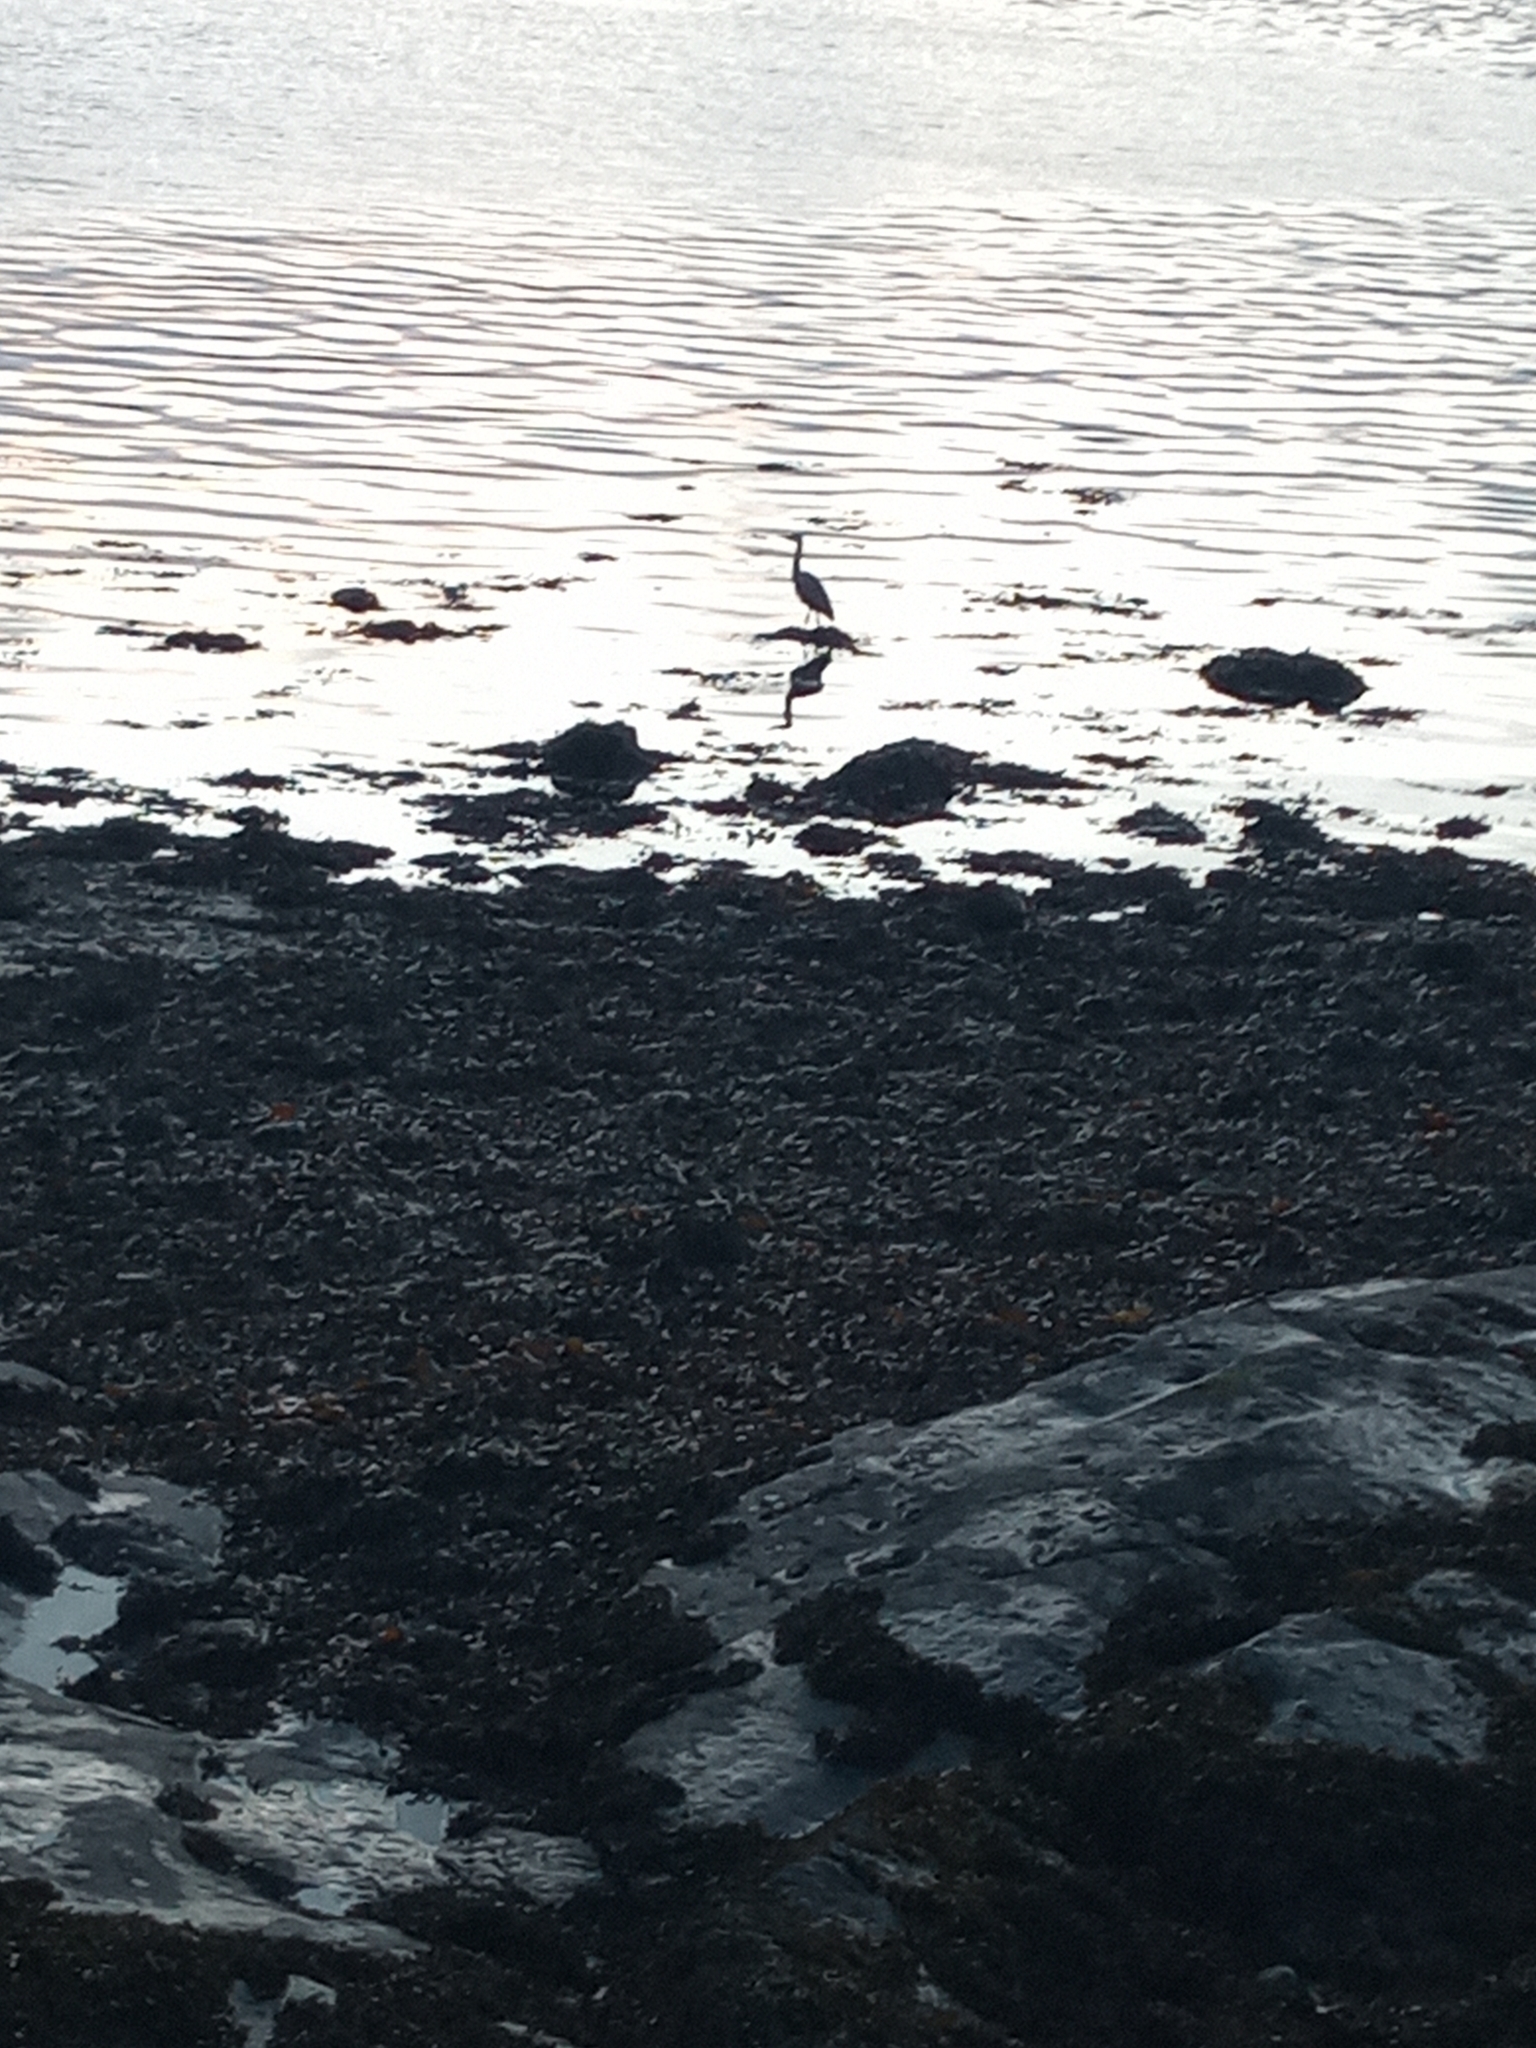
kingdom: Animalia
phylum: Chordata
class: Aves
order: Pelecaniformes
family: Ardeidae
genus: Ardea
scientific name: Ardea cinerea
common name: Grey heron
